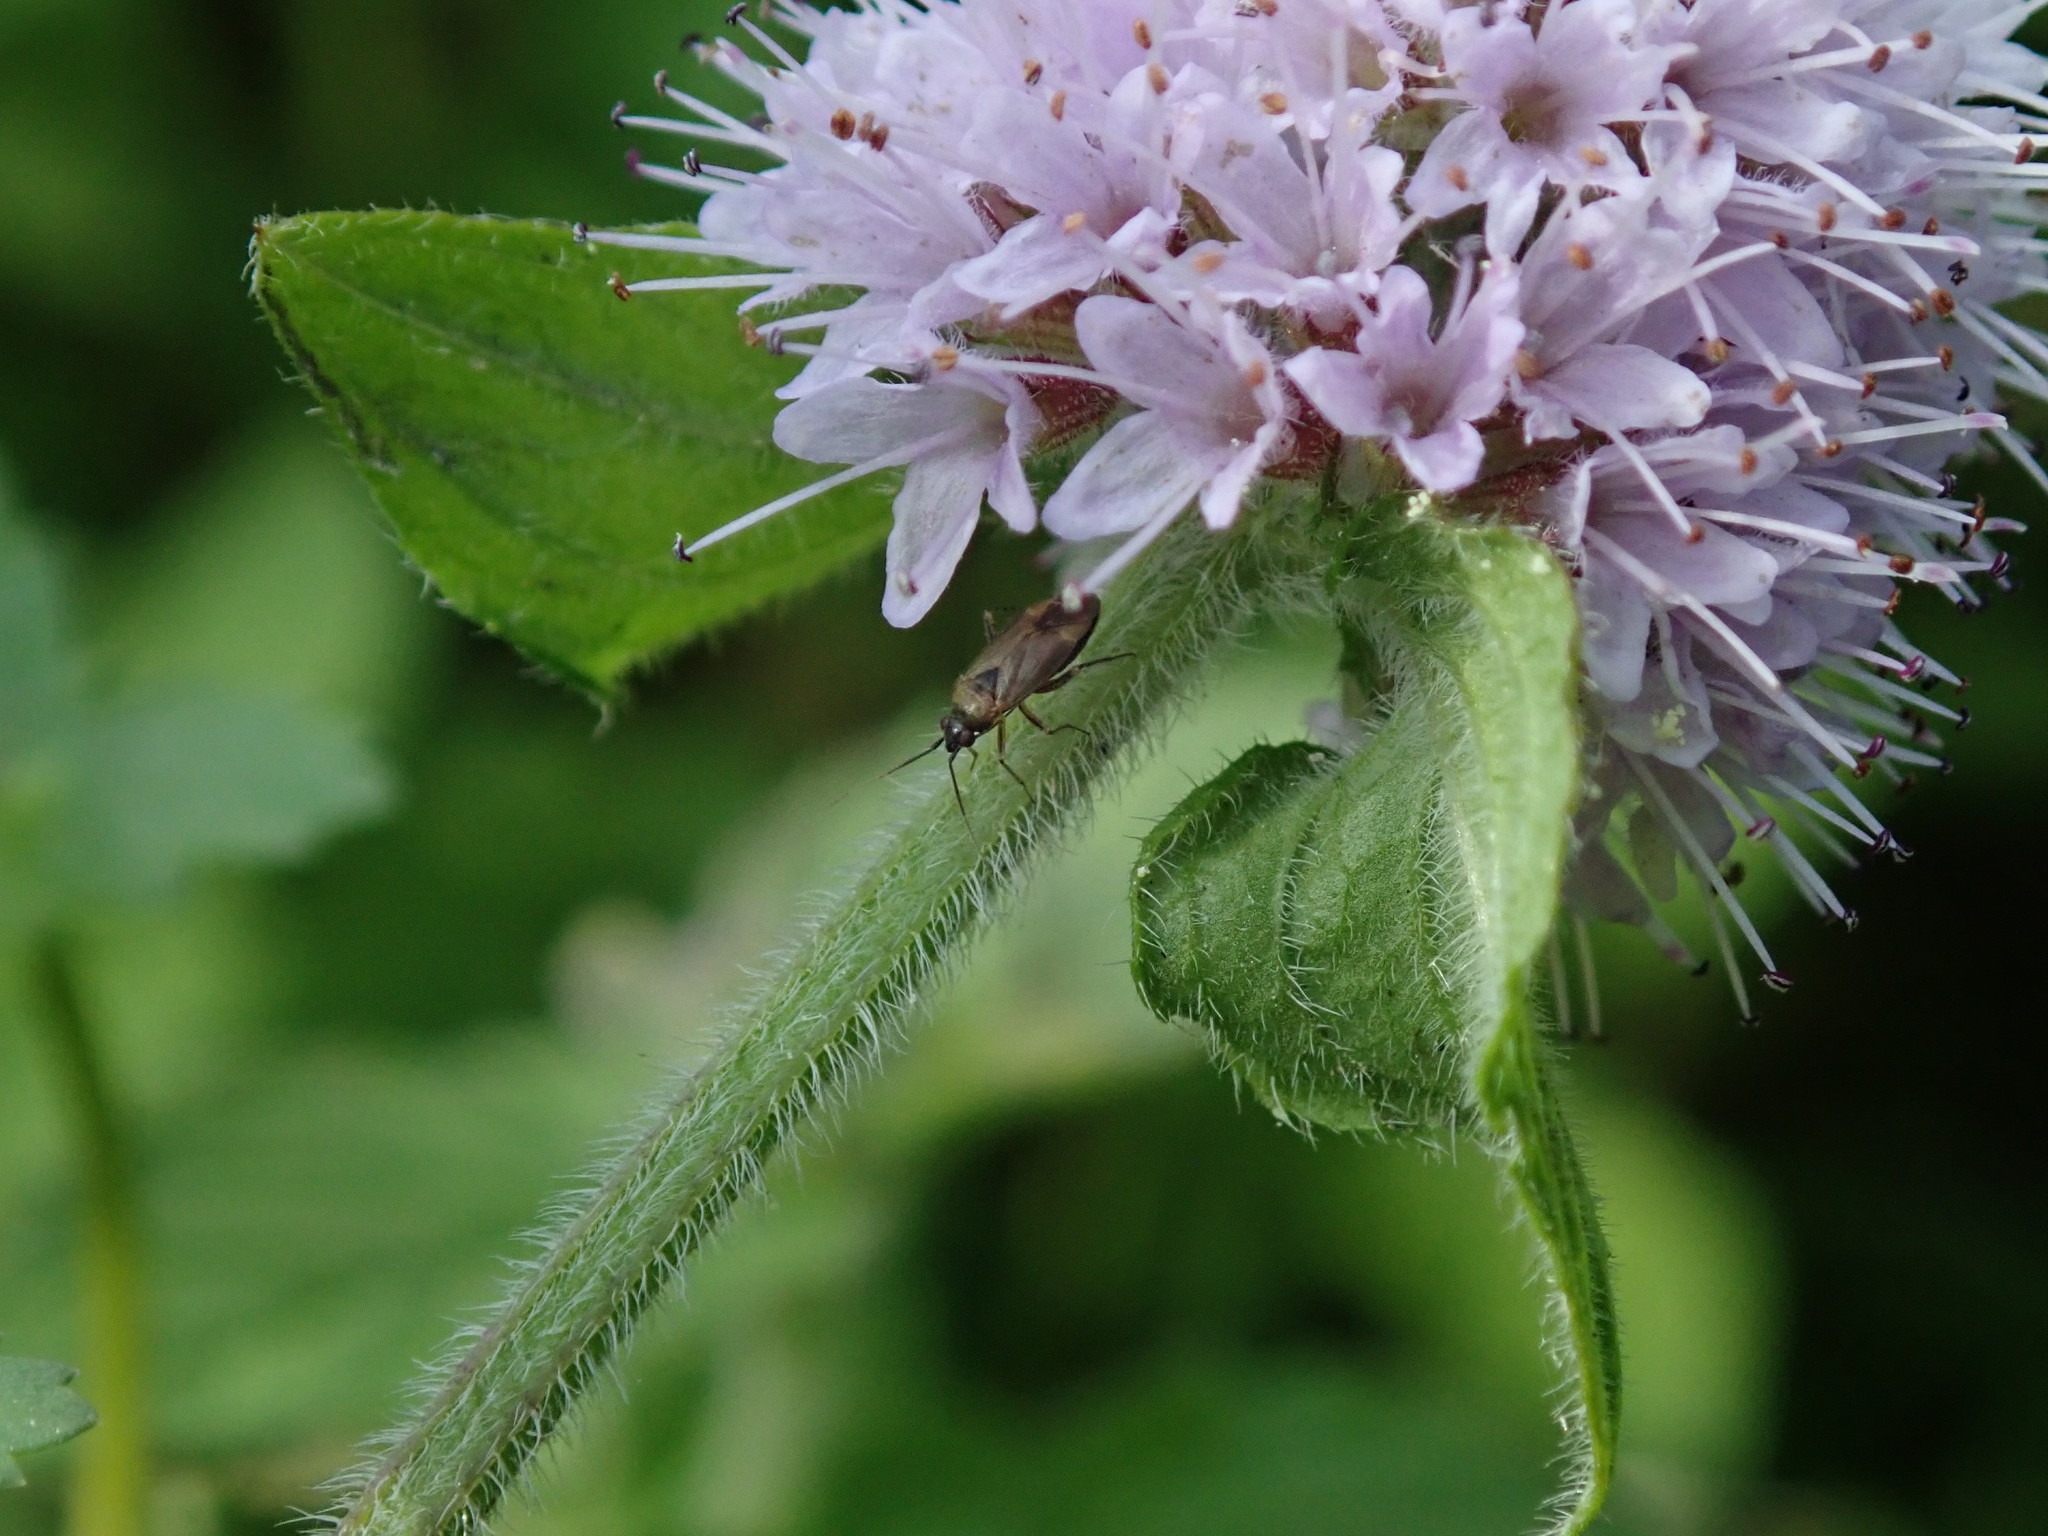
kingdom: Animalia
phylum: Arthropoda
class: Insecta
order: Hemiptera
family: Miridae
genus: Plagiognathus
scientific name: Plagiognathus arbustorum
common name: Plant bug
